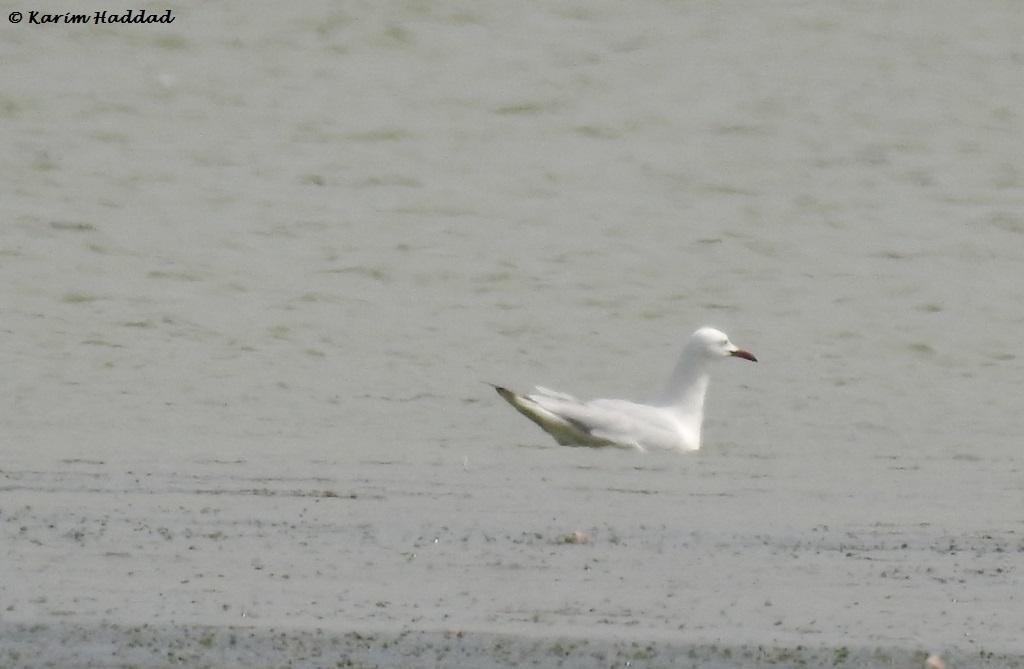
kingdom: Animalia
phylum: Chordata
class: Aves
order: Charadriiformes
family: Laridae
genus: Chroicocephalus
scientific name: Chroicocephalus genei
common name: Slender-billed gull
